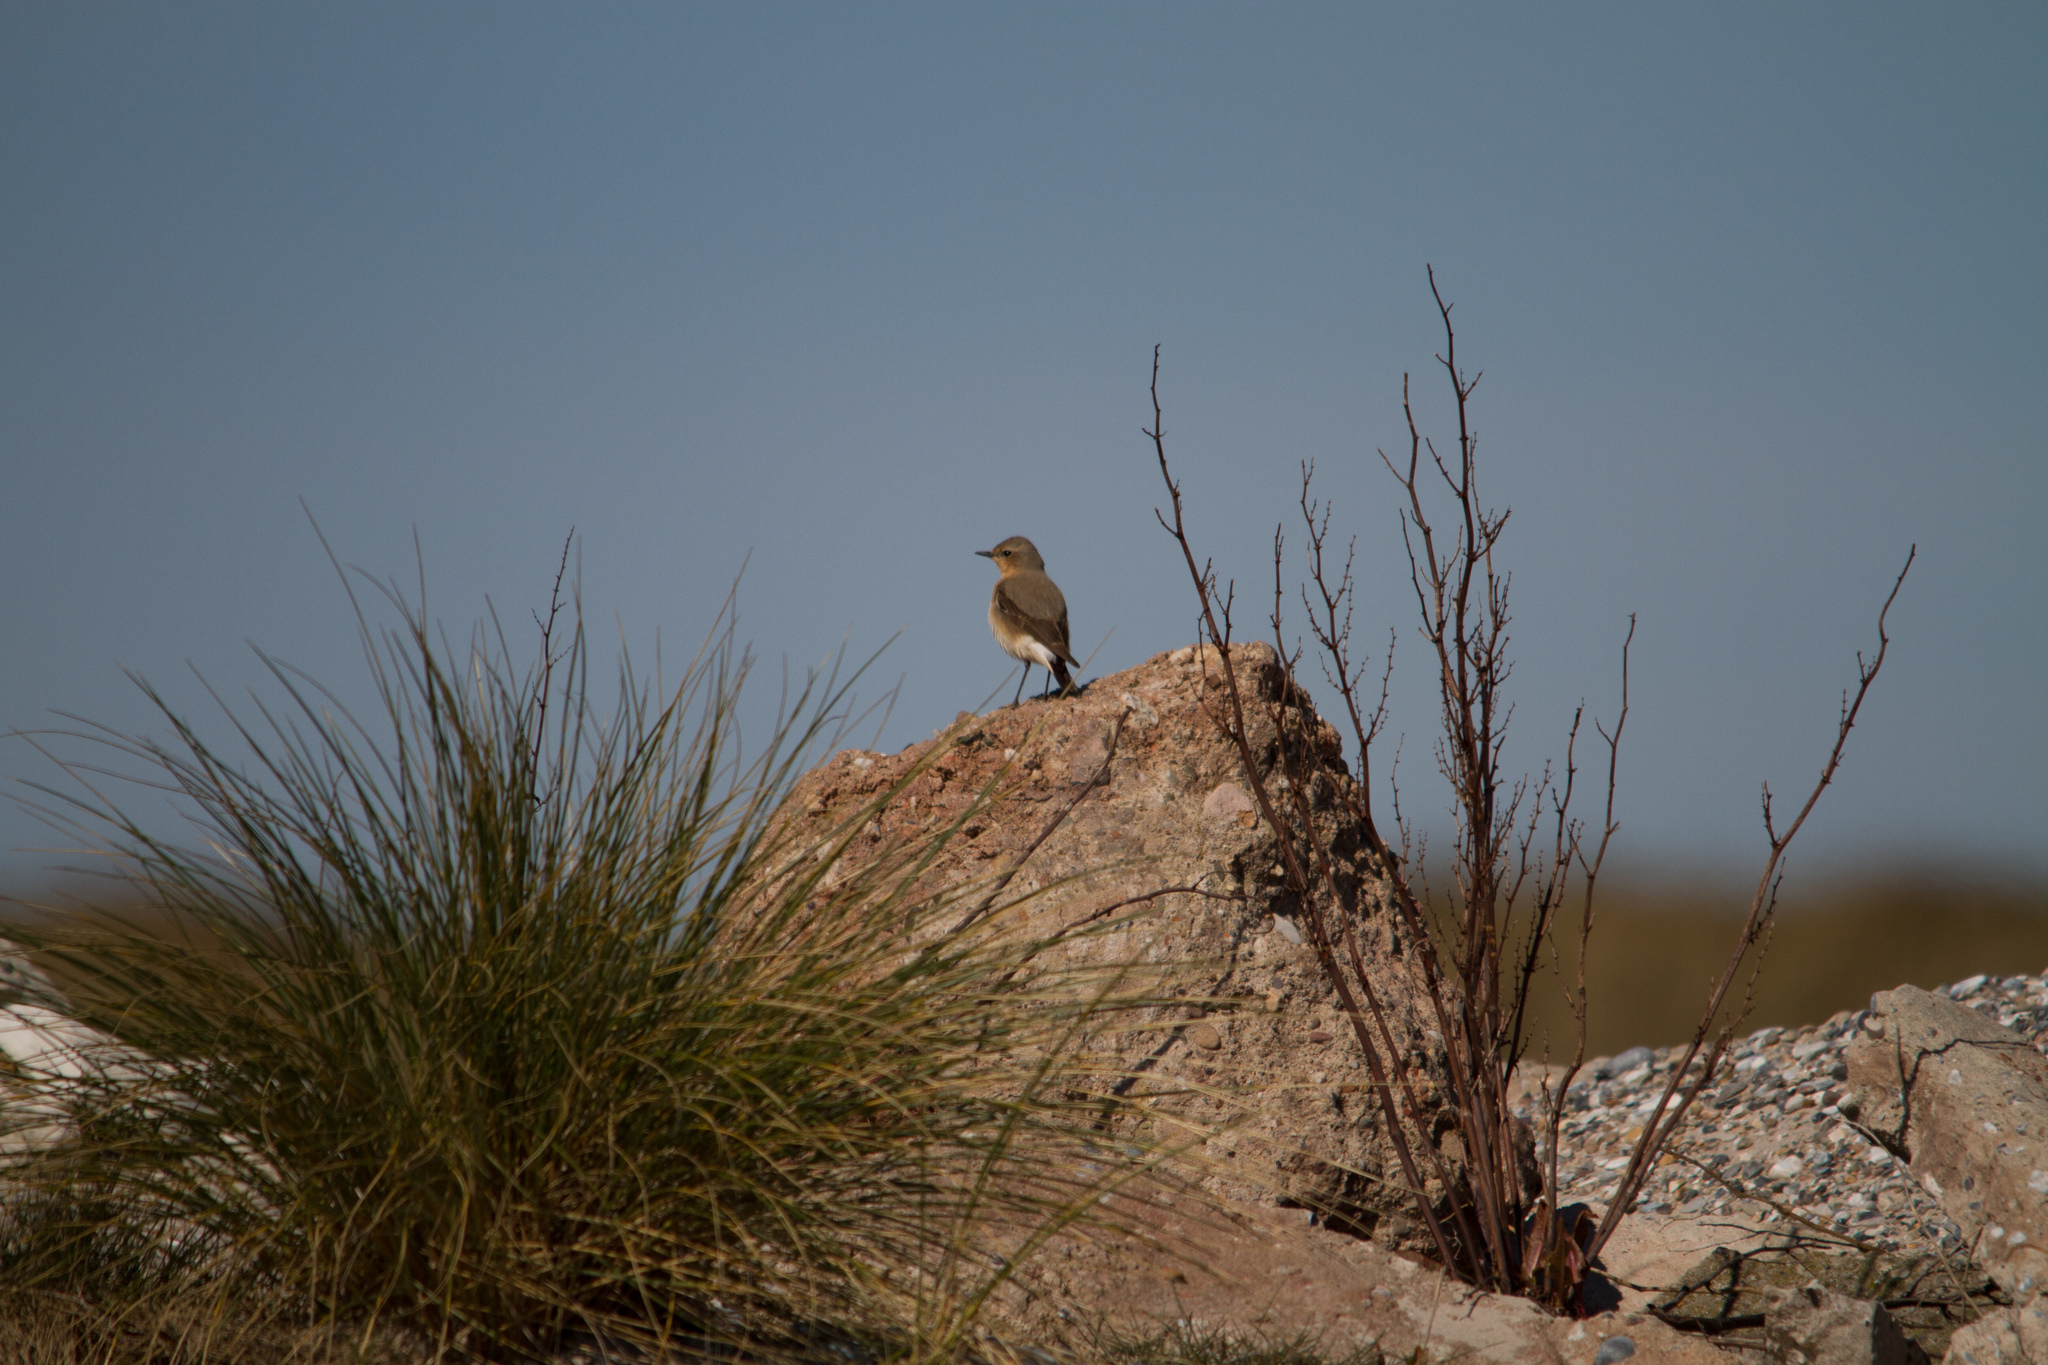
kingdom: Animalia
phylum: Chordata
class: Aves
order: Passeriformes
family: Muscicapidae
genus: Oenanthe
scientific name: Oenanthe oenanthe
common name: Northern wheatear
